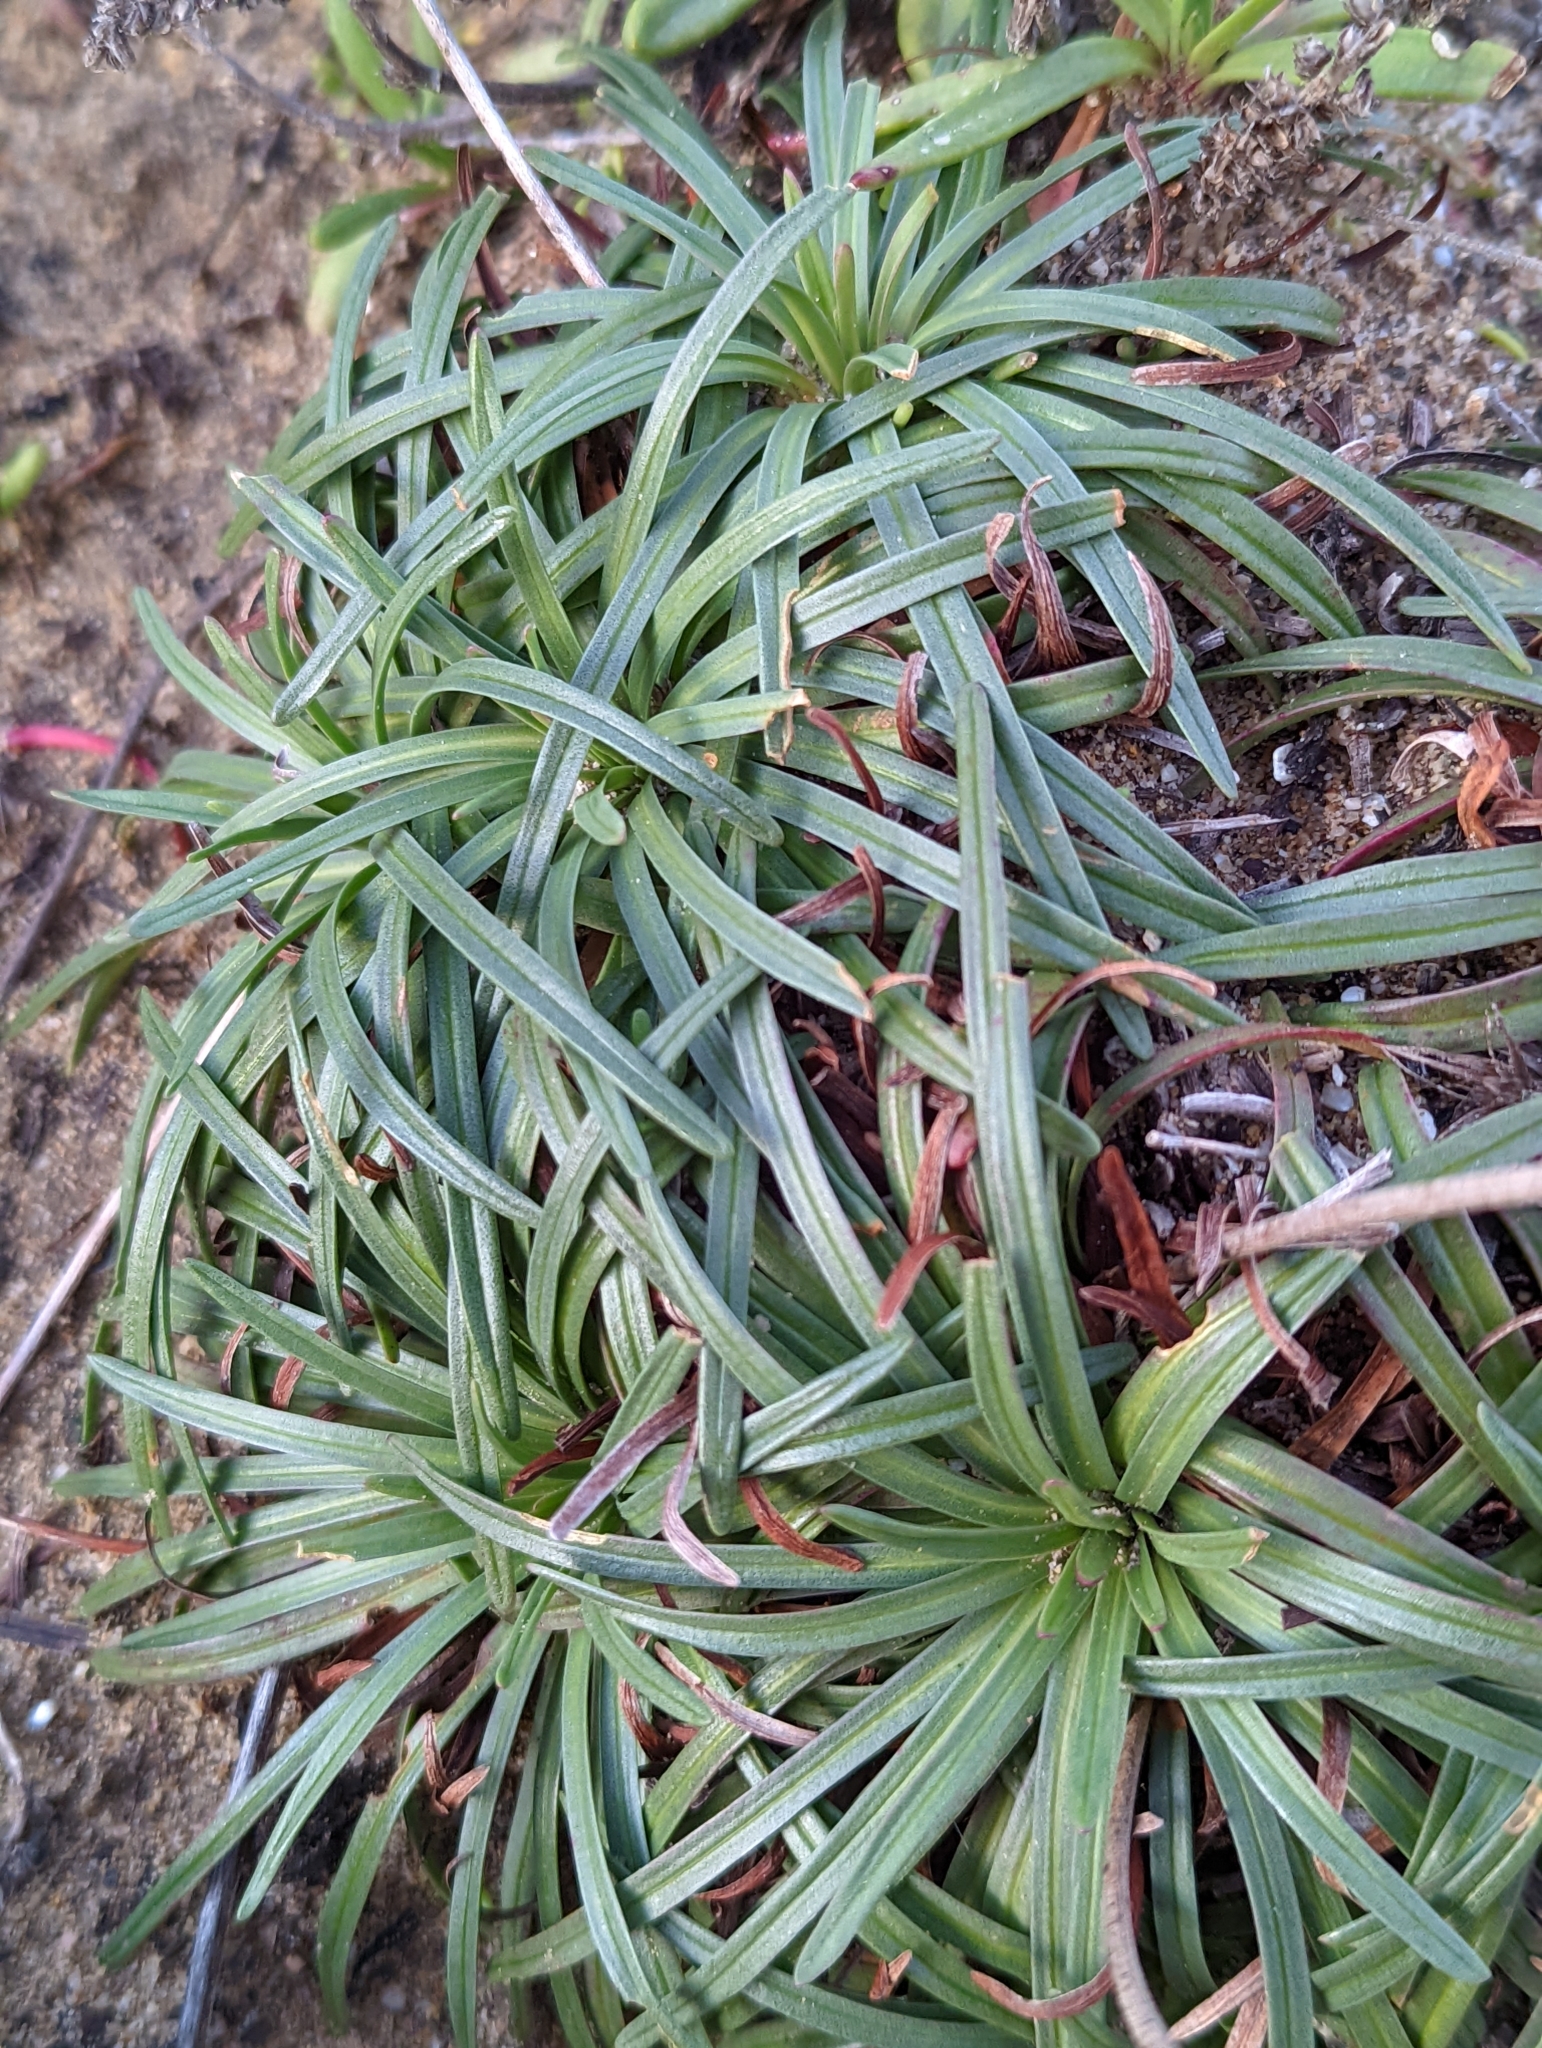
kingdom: Plantae
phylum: Tracheophyta
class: Magnoliopsida
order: Caryophyllales
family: Plumbaginaceae
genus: Armeria
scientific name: Armeria maritima
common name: Thrift
